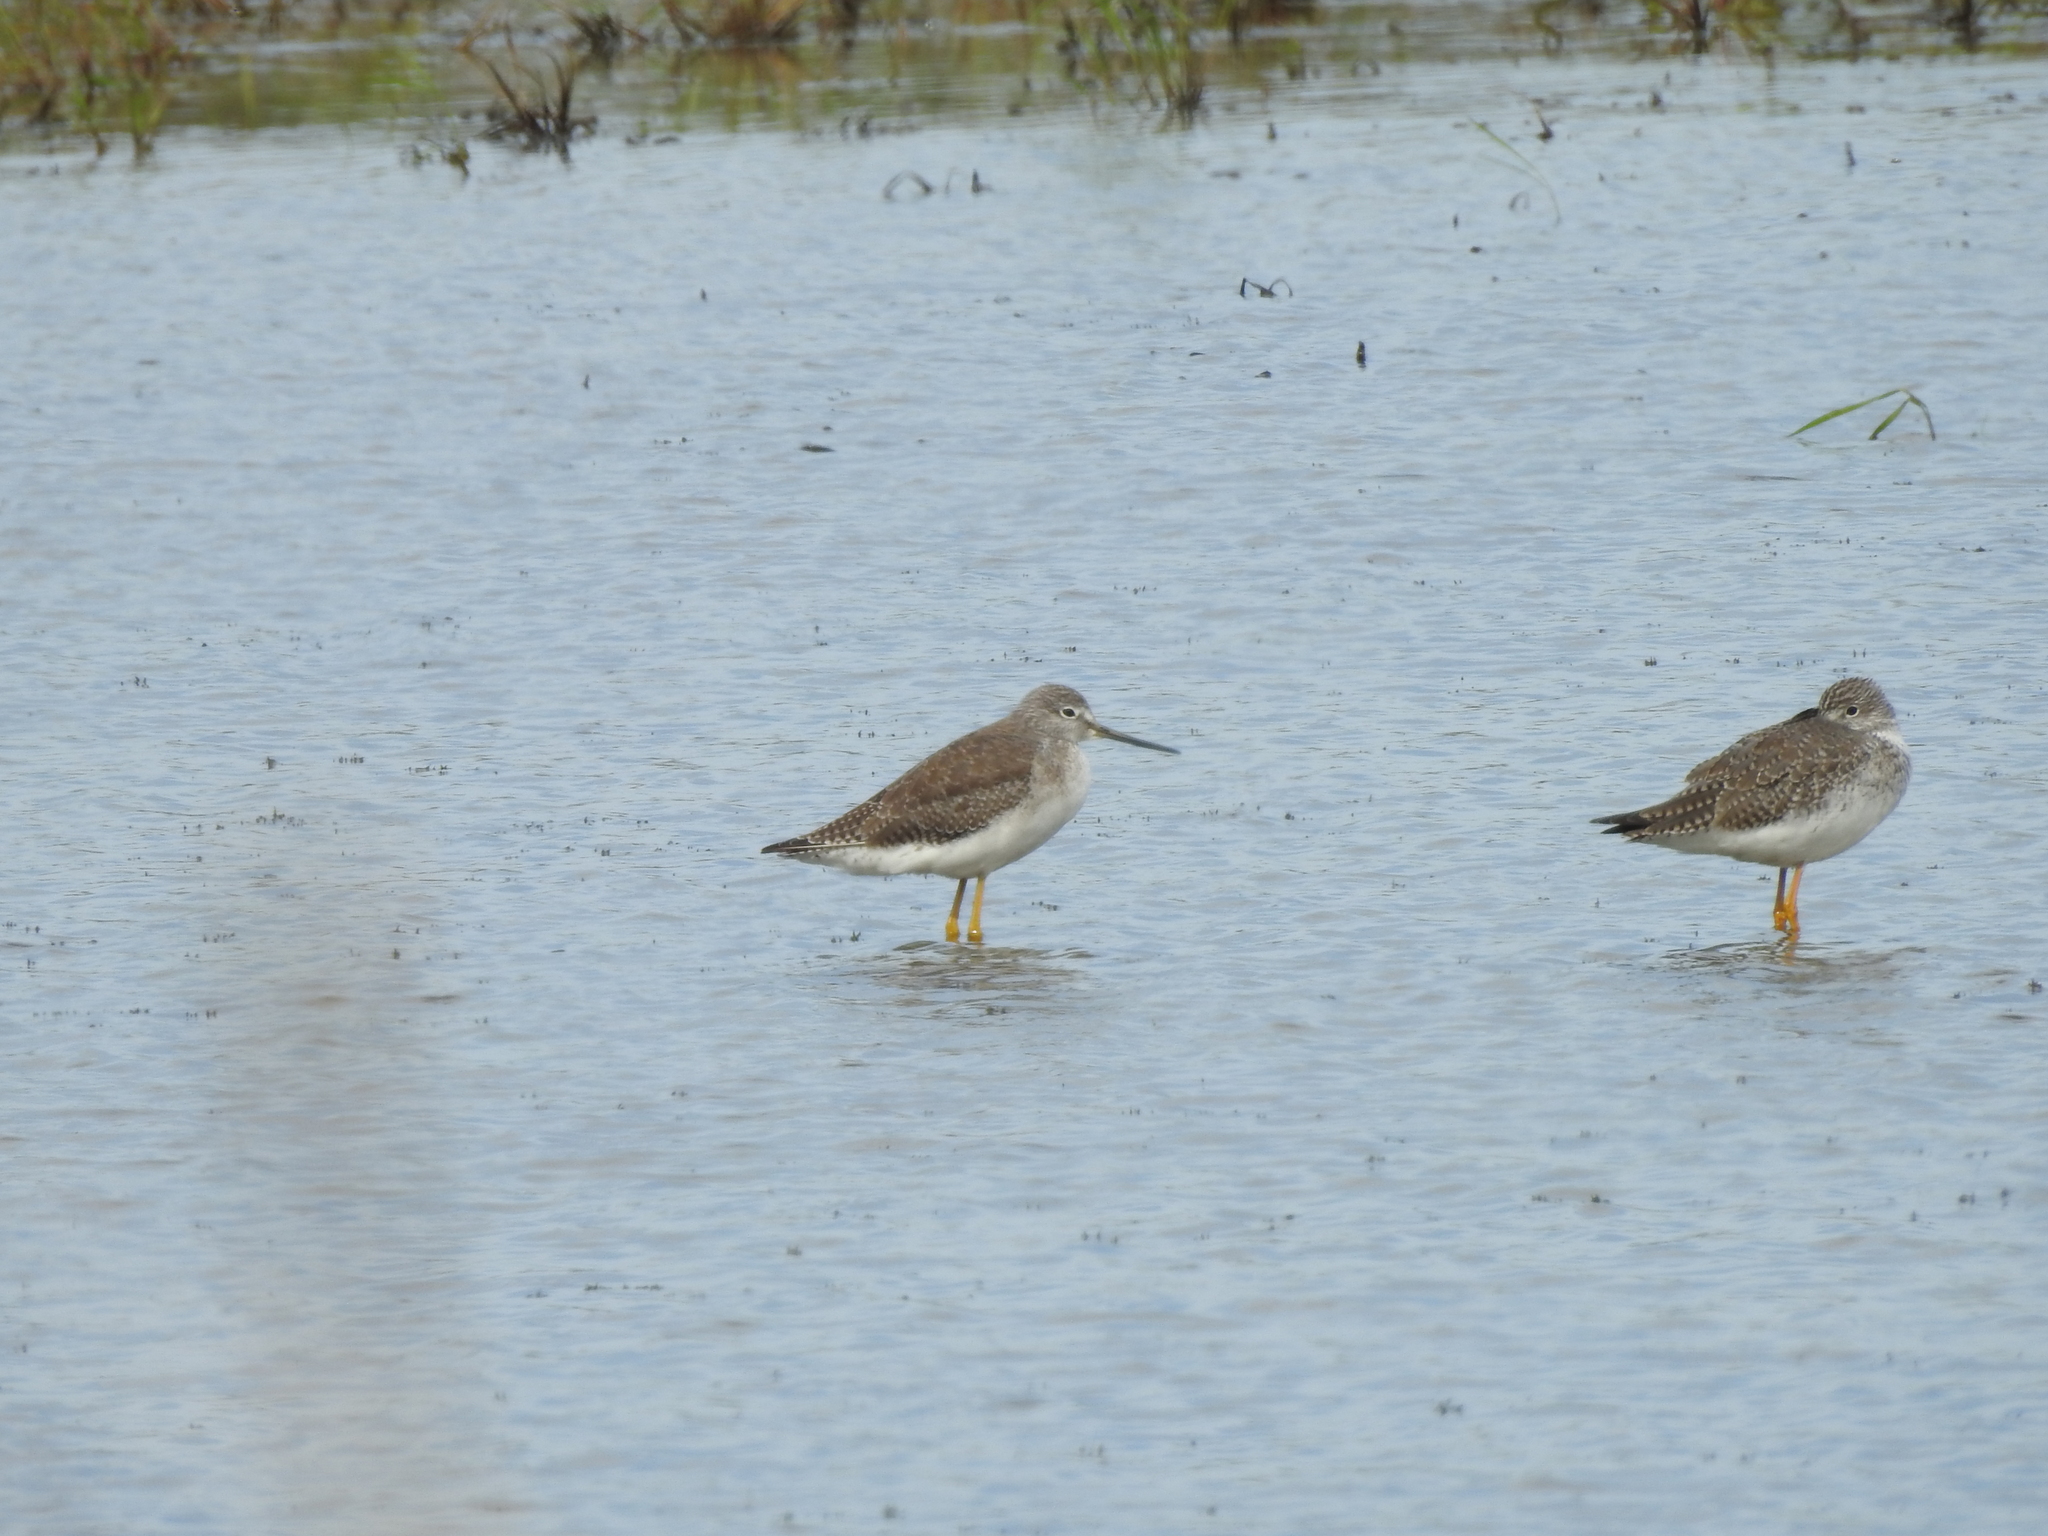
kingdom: Animalia
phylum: Chordata
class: Aves
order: Charadriiformes
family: Scolopacidae
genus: Tringa
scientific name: Tringa melanoleuca
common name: Greater yellowlegs
